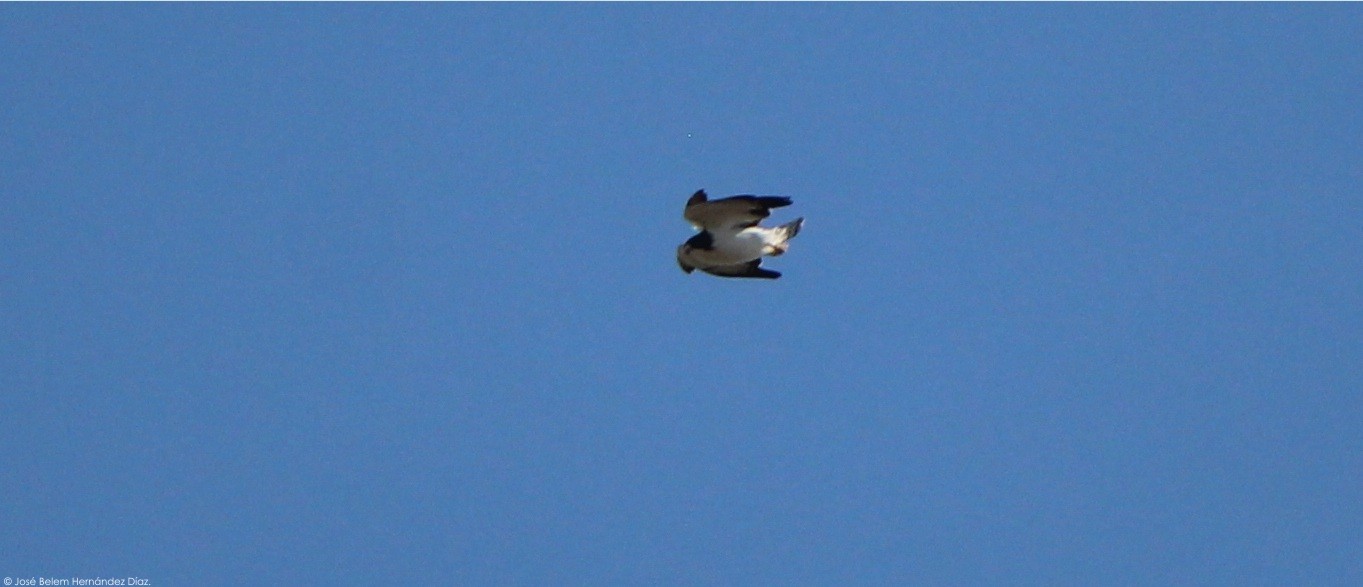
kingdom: Animalia
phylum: Chordata
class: Aves
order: Accipitriformes
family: Accipitridae
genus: Buteo
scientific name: Buteo brachyurus
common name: Short-tailed hawk
